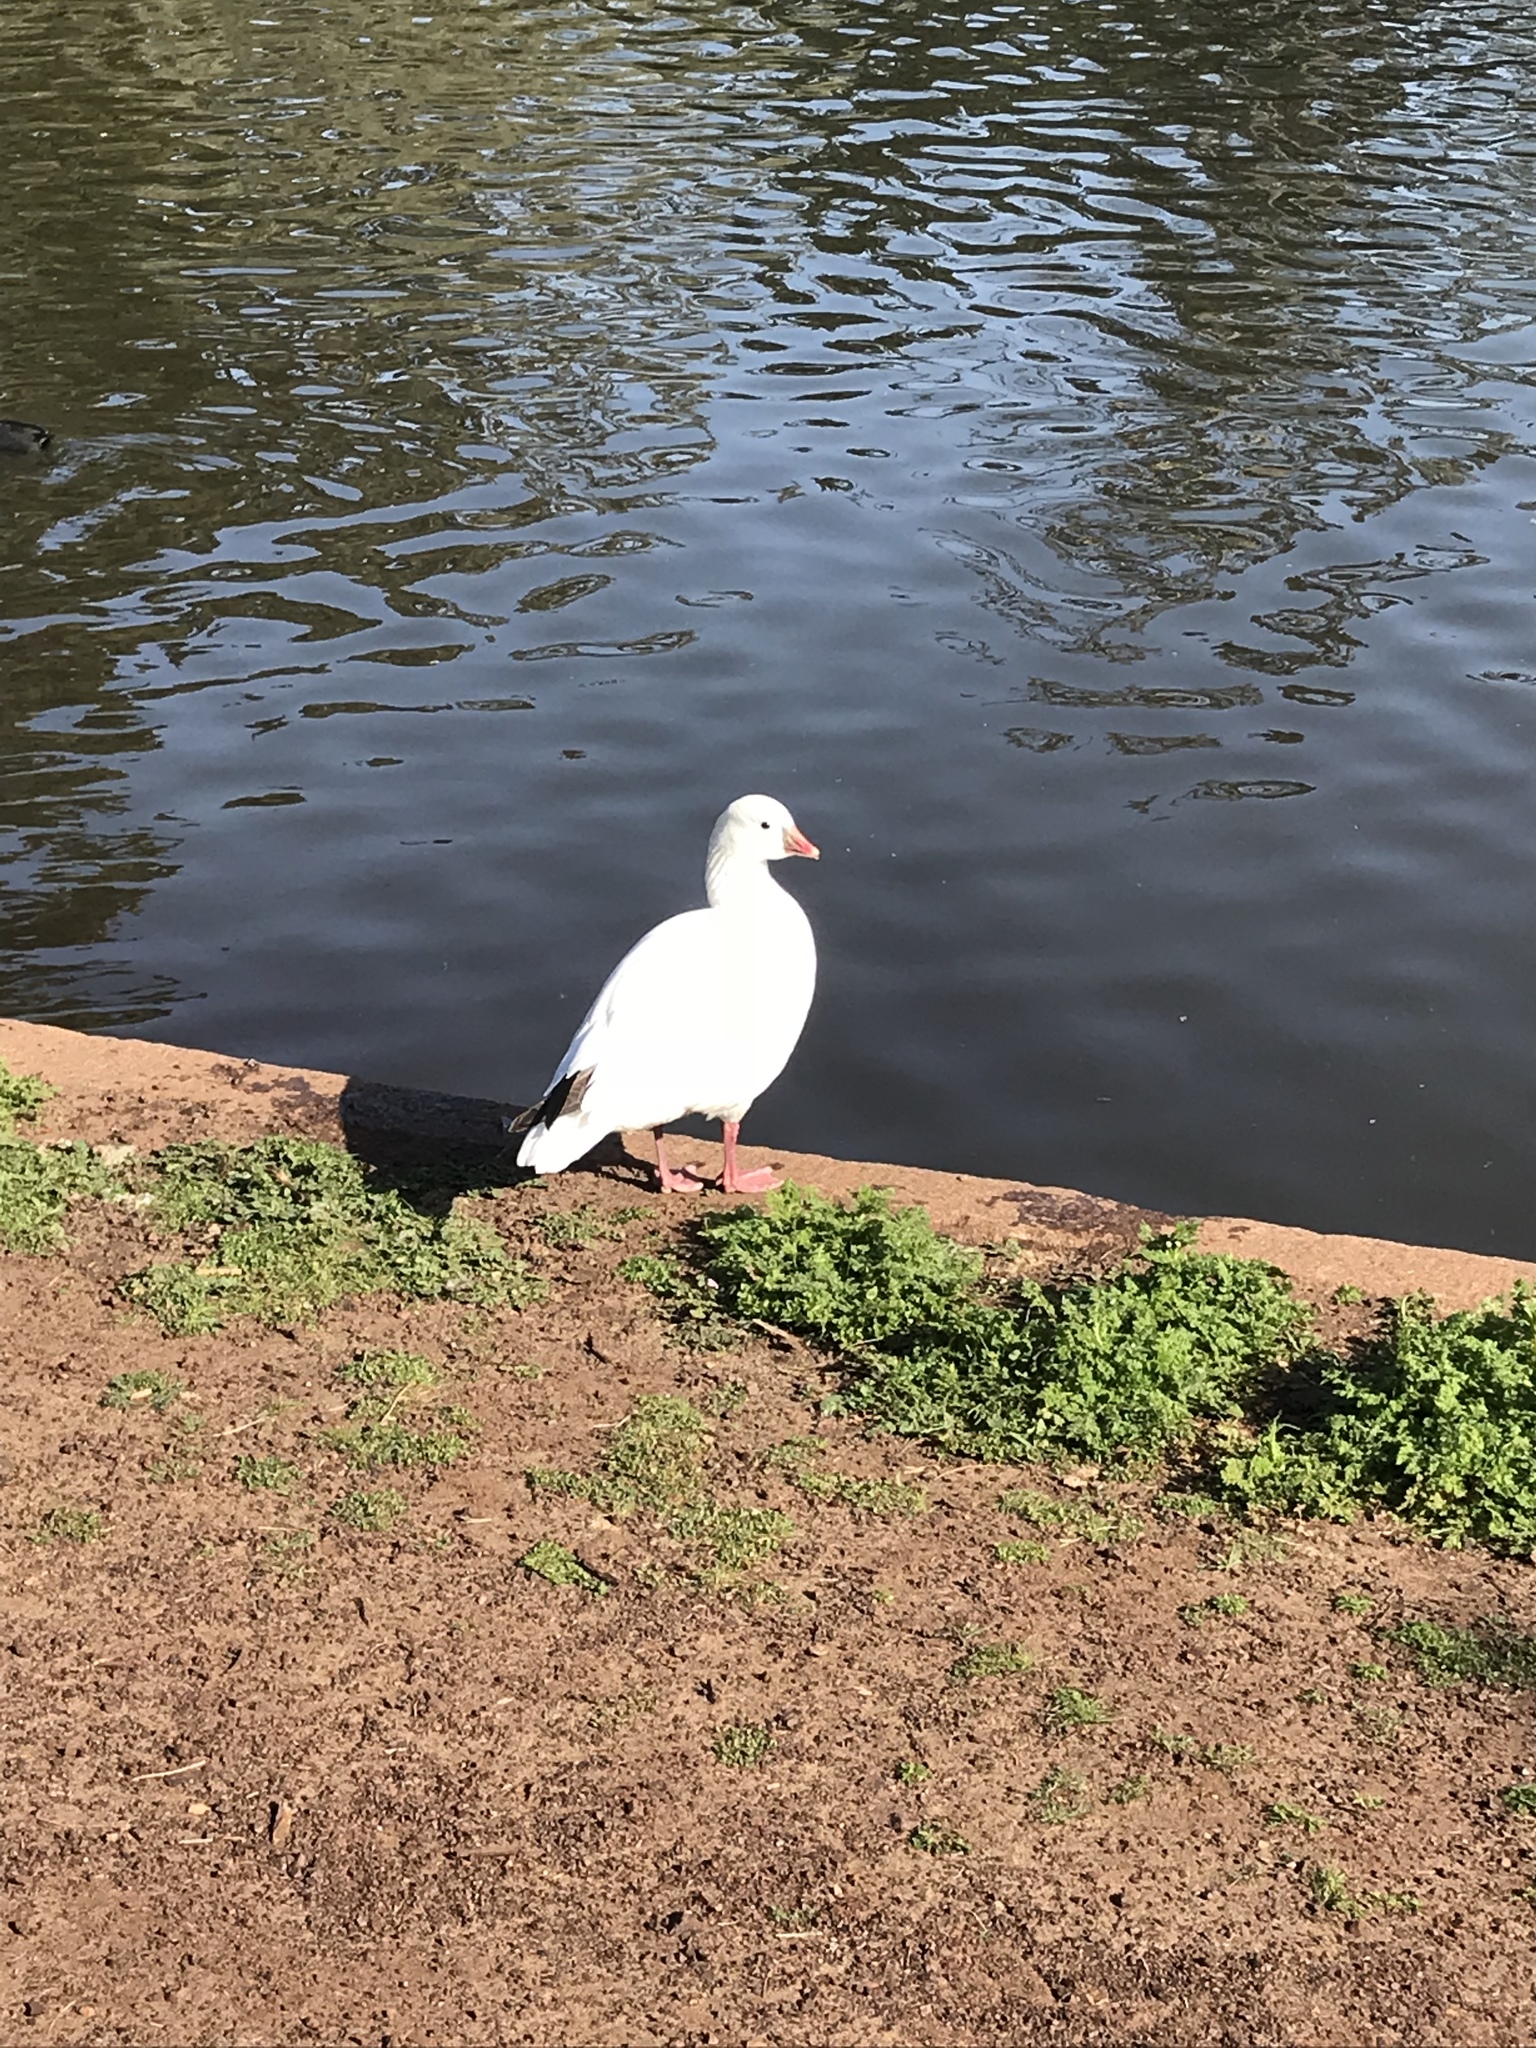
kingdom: Animalia
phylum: Chordata
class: Aves
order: Anseriformes
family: Anatidae
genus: Anser
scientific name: Anser rossii
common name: Ross's goose
